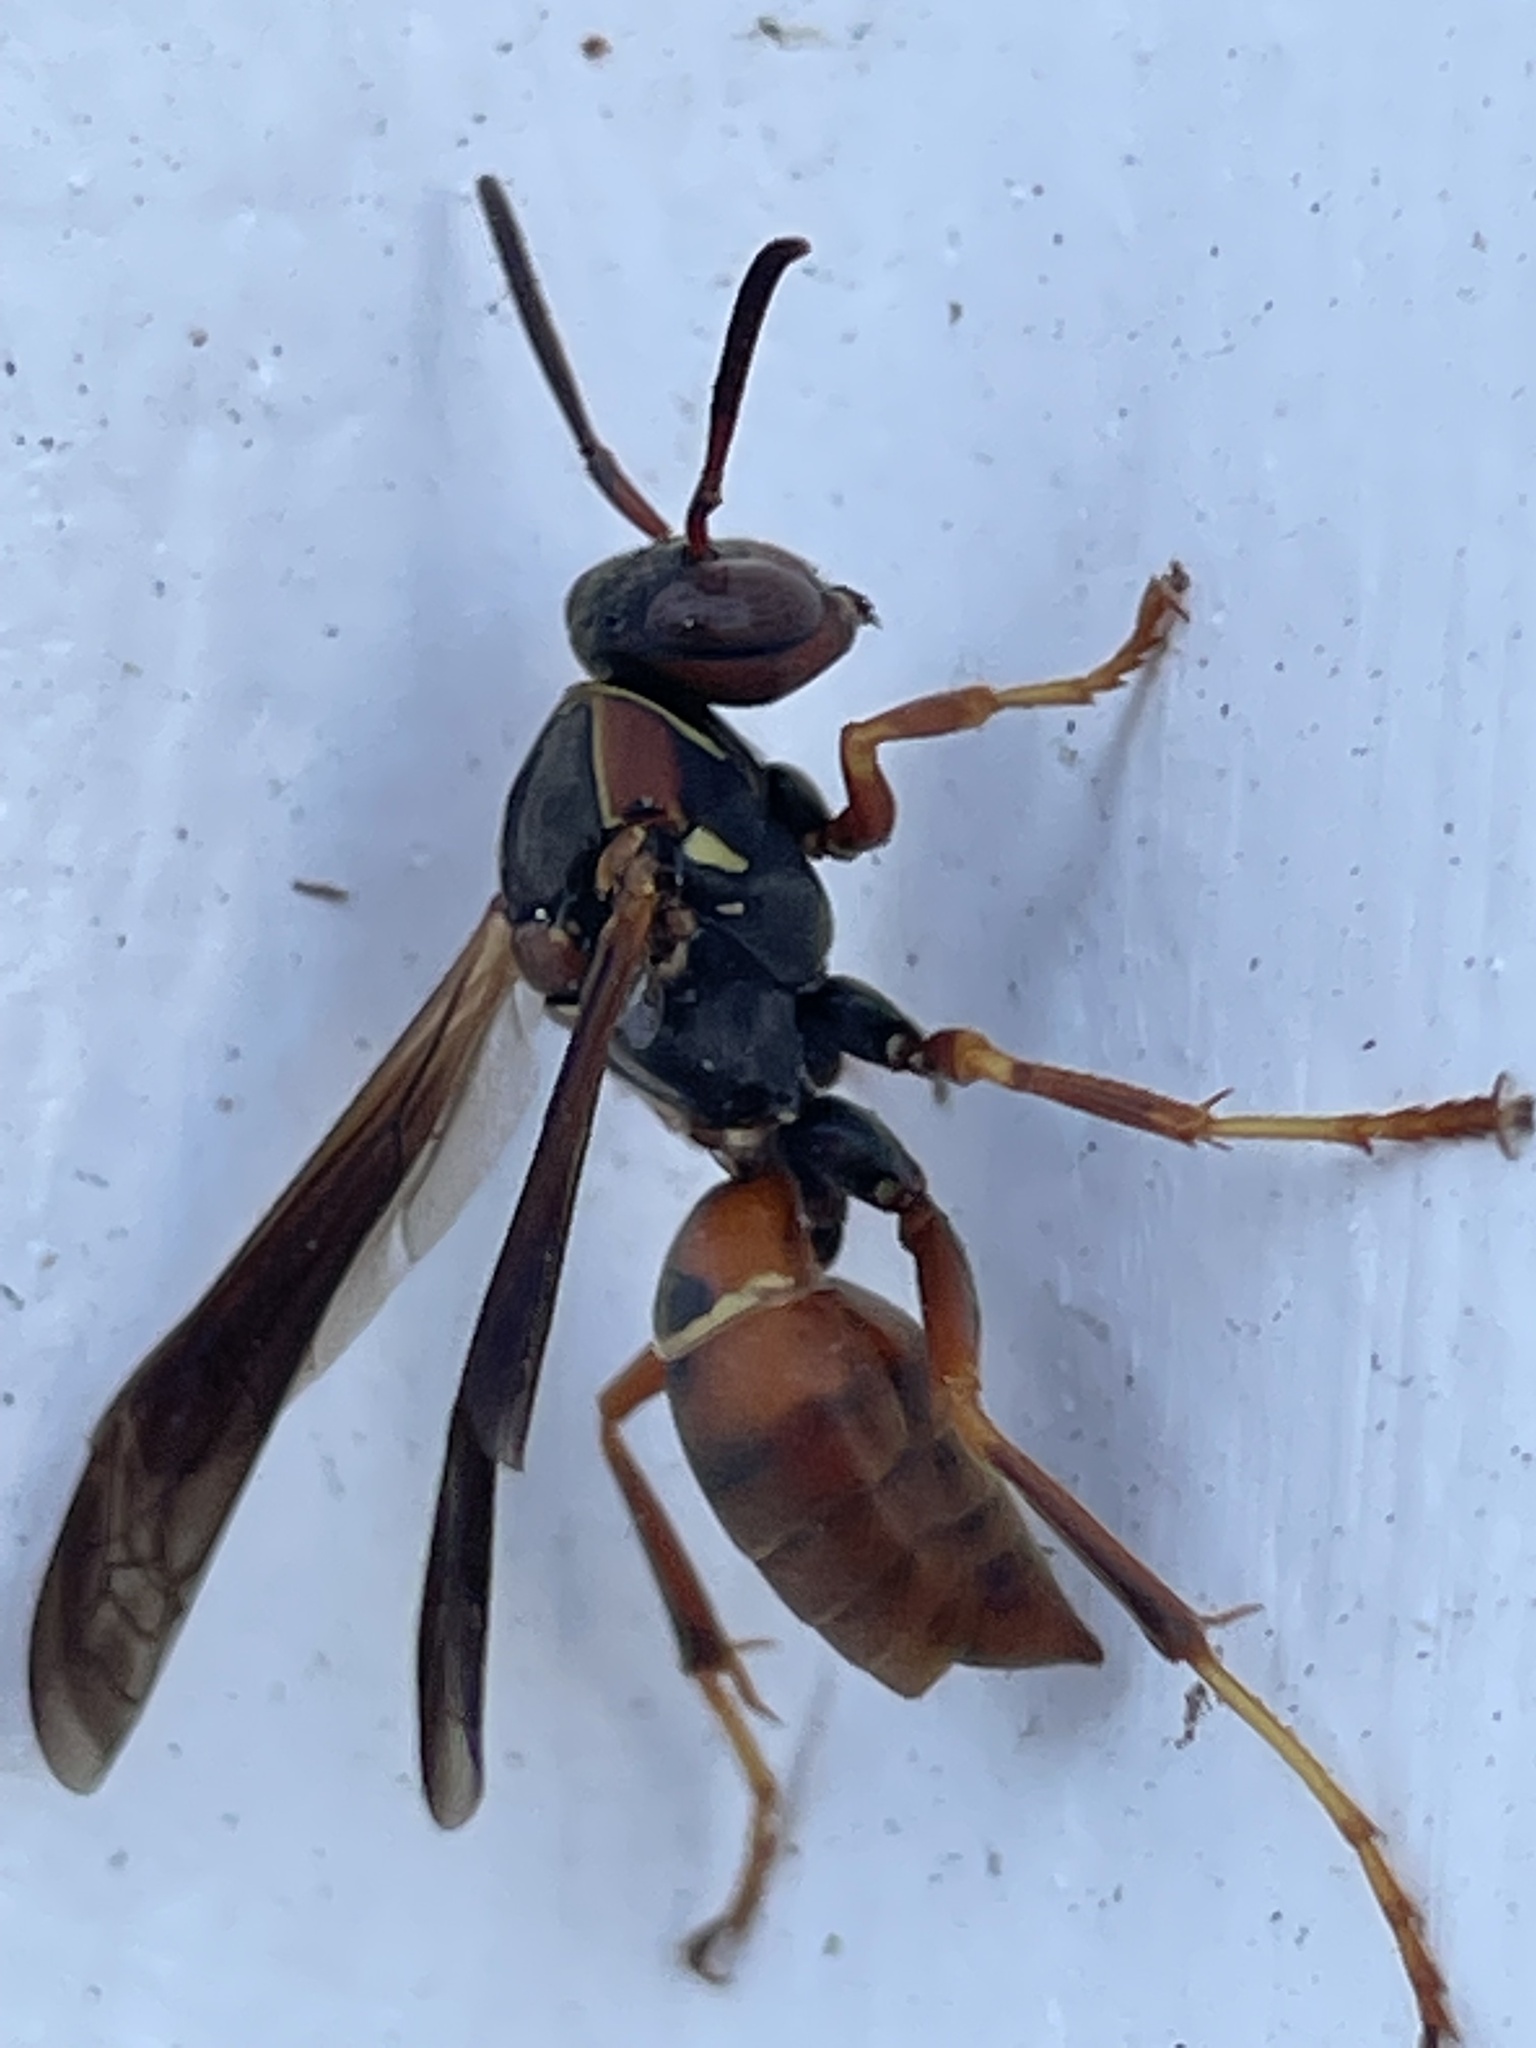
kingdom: Animalia
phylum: Arthropoda
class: Insecta
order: Hymenoptera
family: Eumenidae
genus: Polistes
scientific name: Polistes fuscatus
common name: Dark paper wasp
